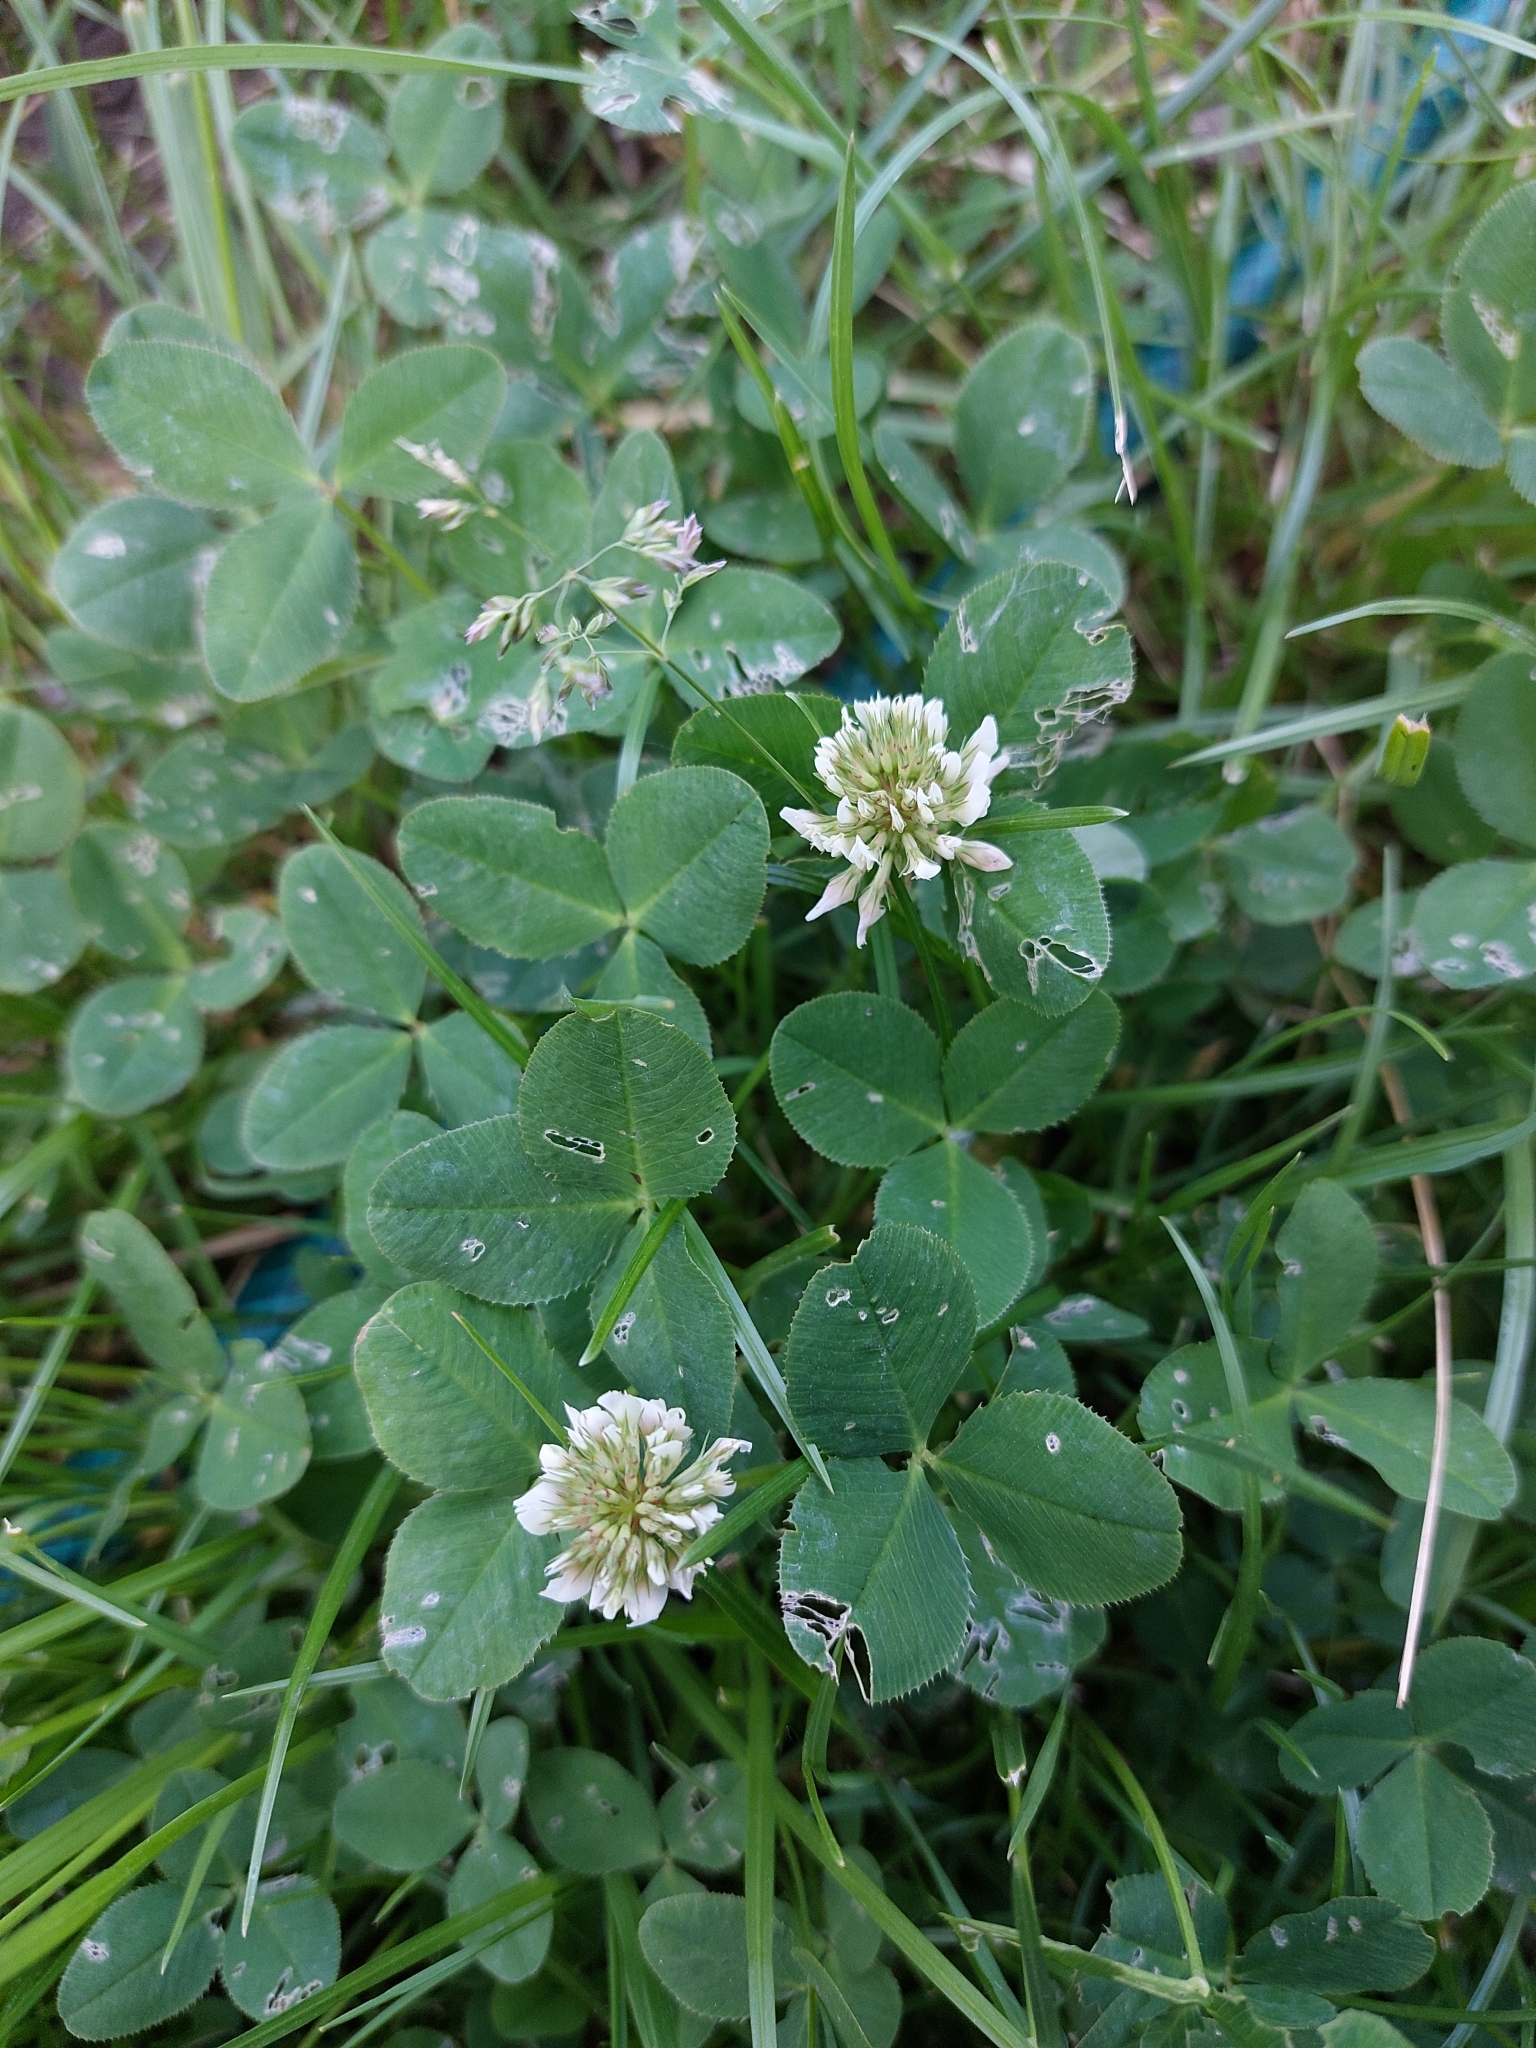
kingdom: Plantae
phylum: Tracheophyta
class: Magnoliopsida
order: Fabales
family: Fabaceae
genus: Trifolium
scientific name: Trifolium repens
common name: White clover
